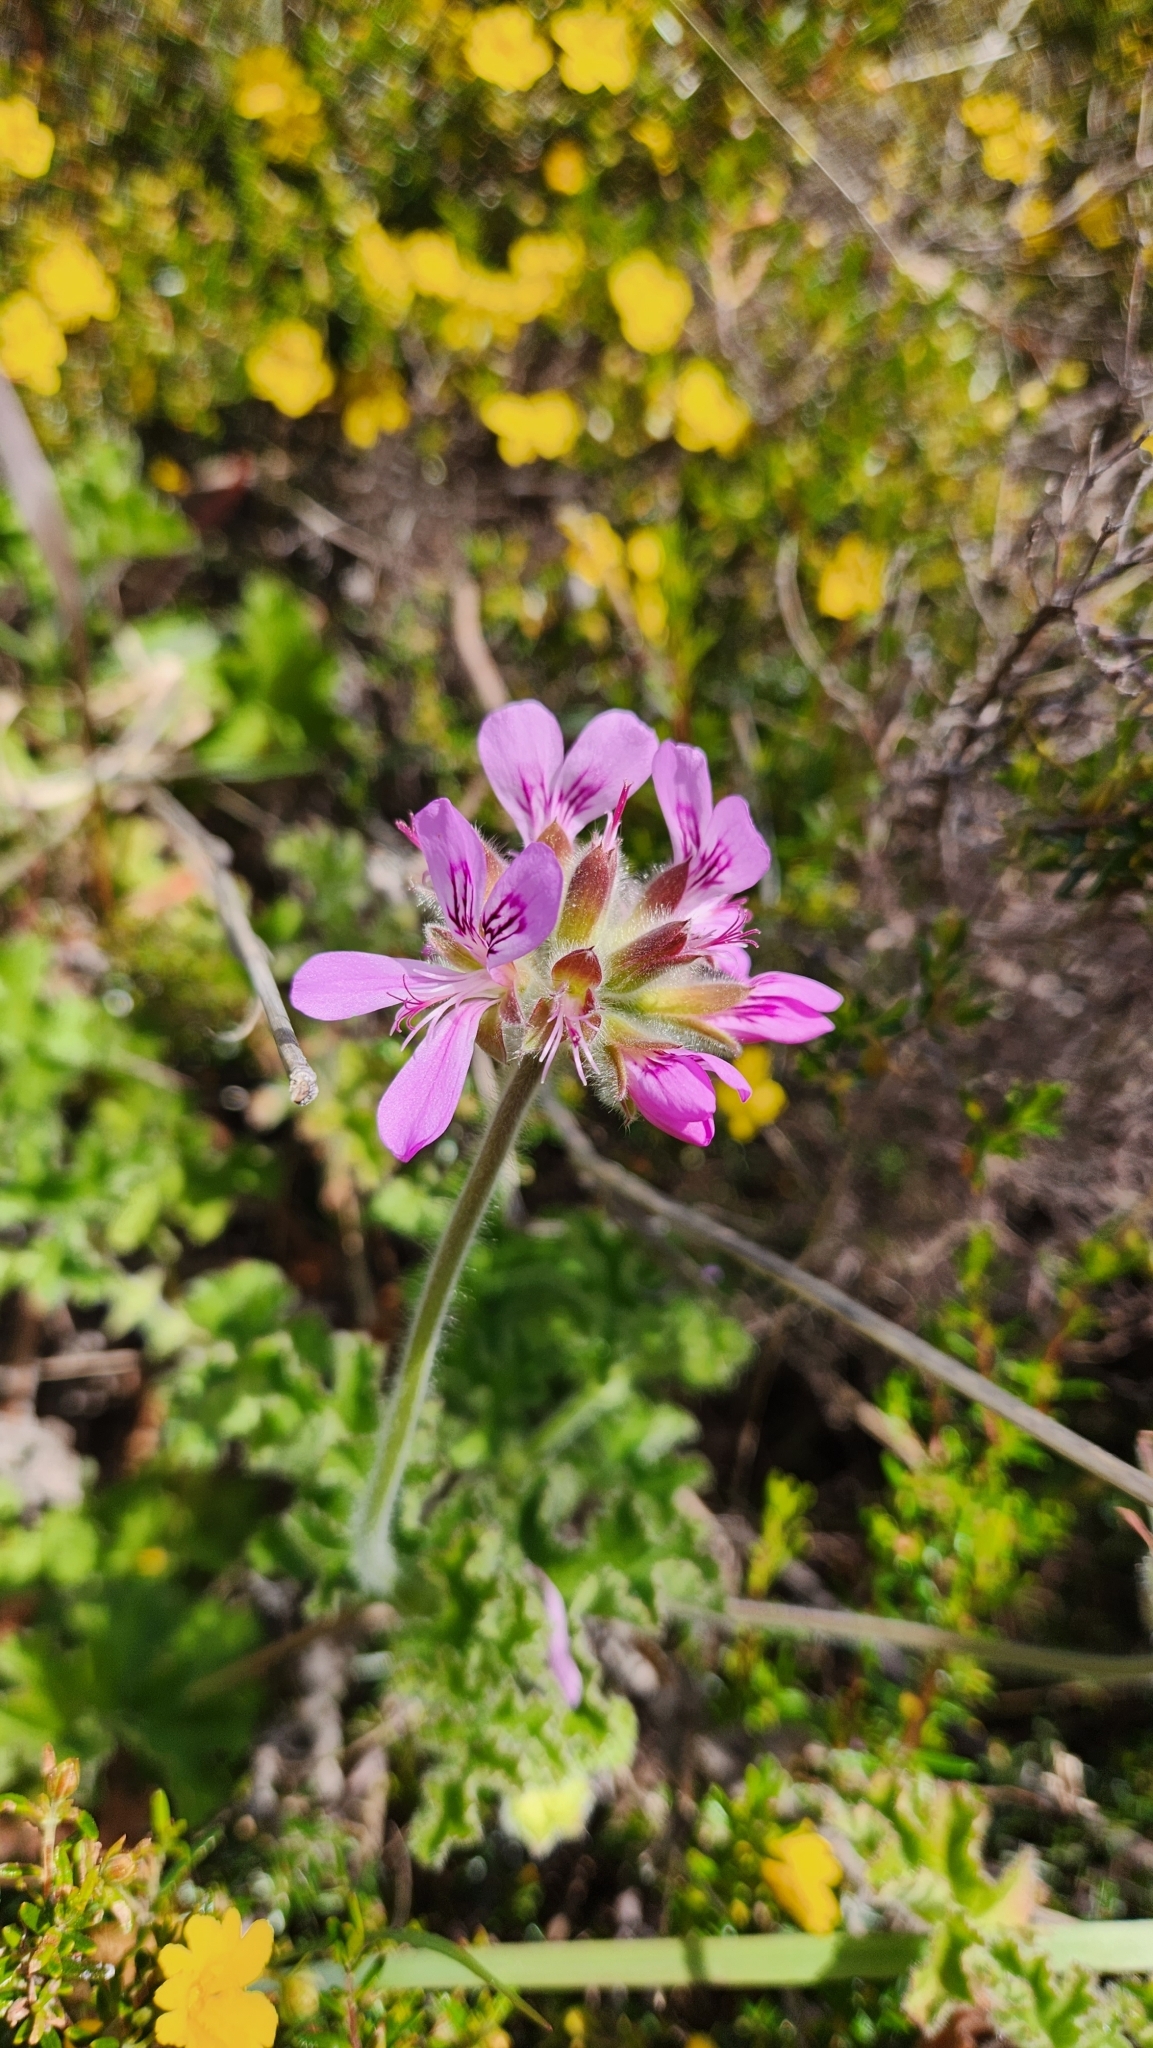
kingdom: Plantae
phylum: Tracheophyta
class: Magnoliopsida
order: Geraniales
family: Geraniaceae
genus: Pelargonium
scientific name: Pelargonium capitatum
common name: Rose scented geranium
